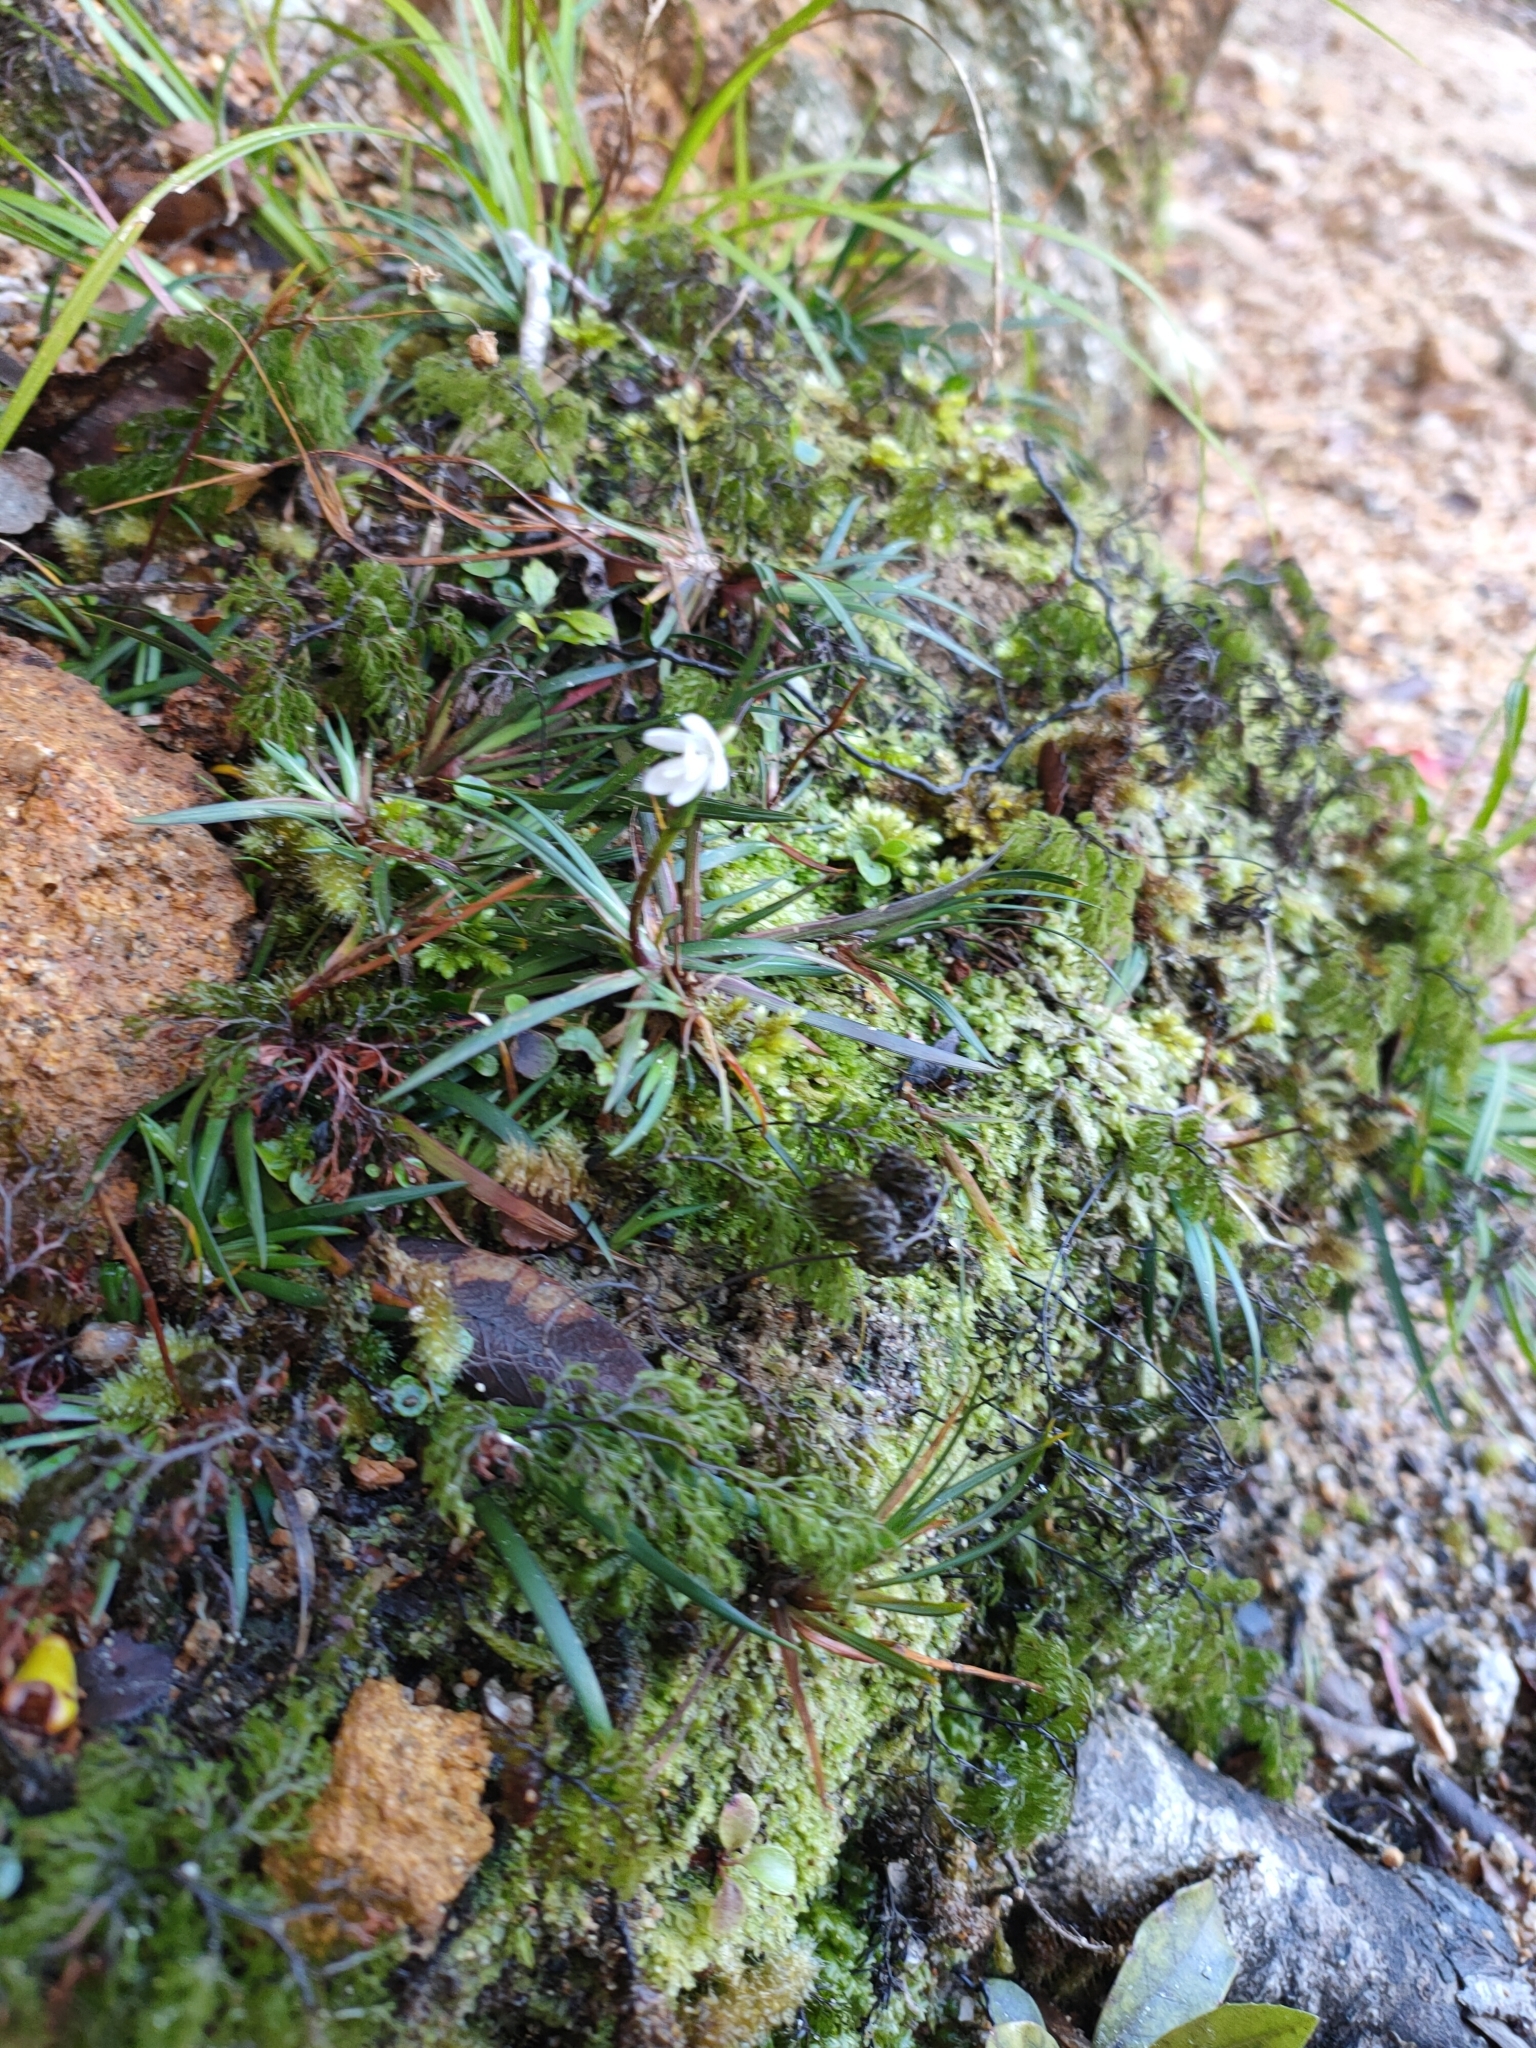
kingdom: Plantae
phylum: Tracheophyta
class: Liliopsida
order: Asparagales
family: Iridaceae
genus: Libertia
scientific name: Libertia micrantha
